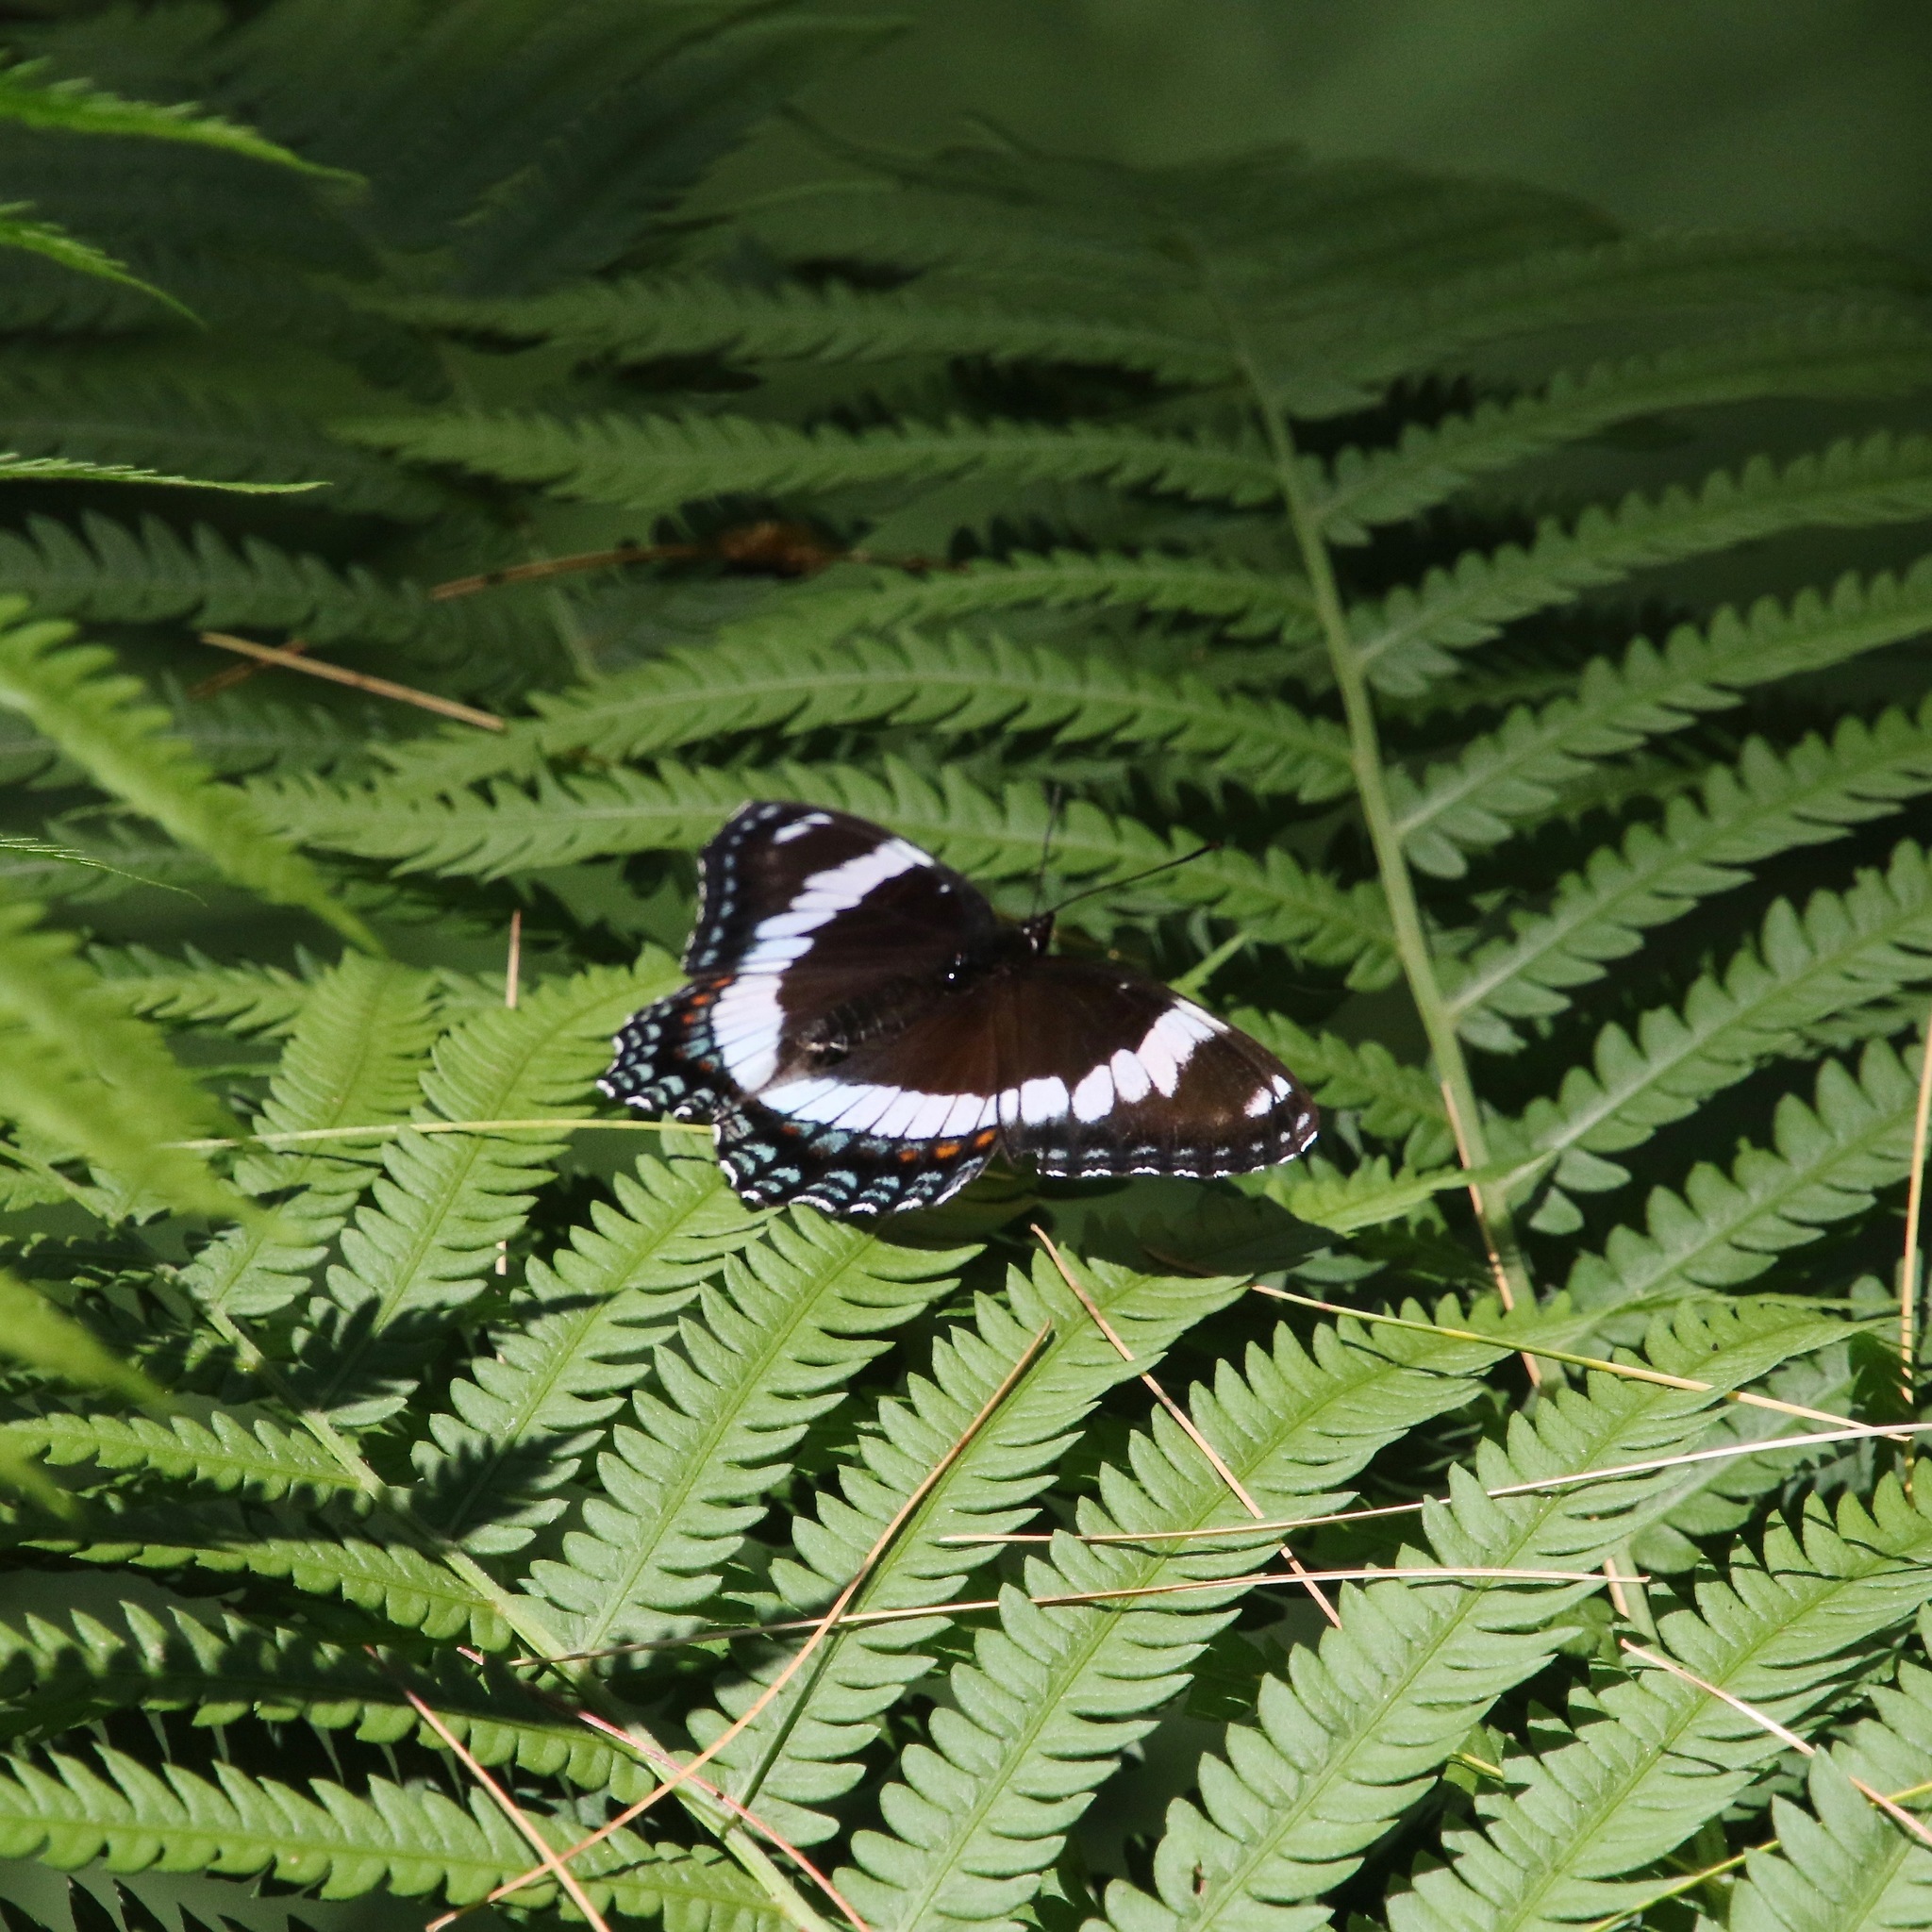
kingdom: Animalia
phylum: Arthropoda
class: Insecta
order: Lepidoptera
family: Nymphalidae
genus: Limenitis
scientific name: Limenitis arthemis
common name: Red-spotted admiral
